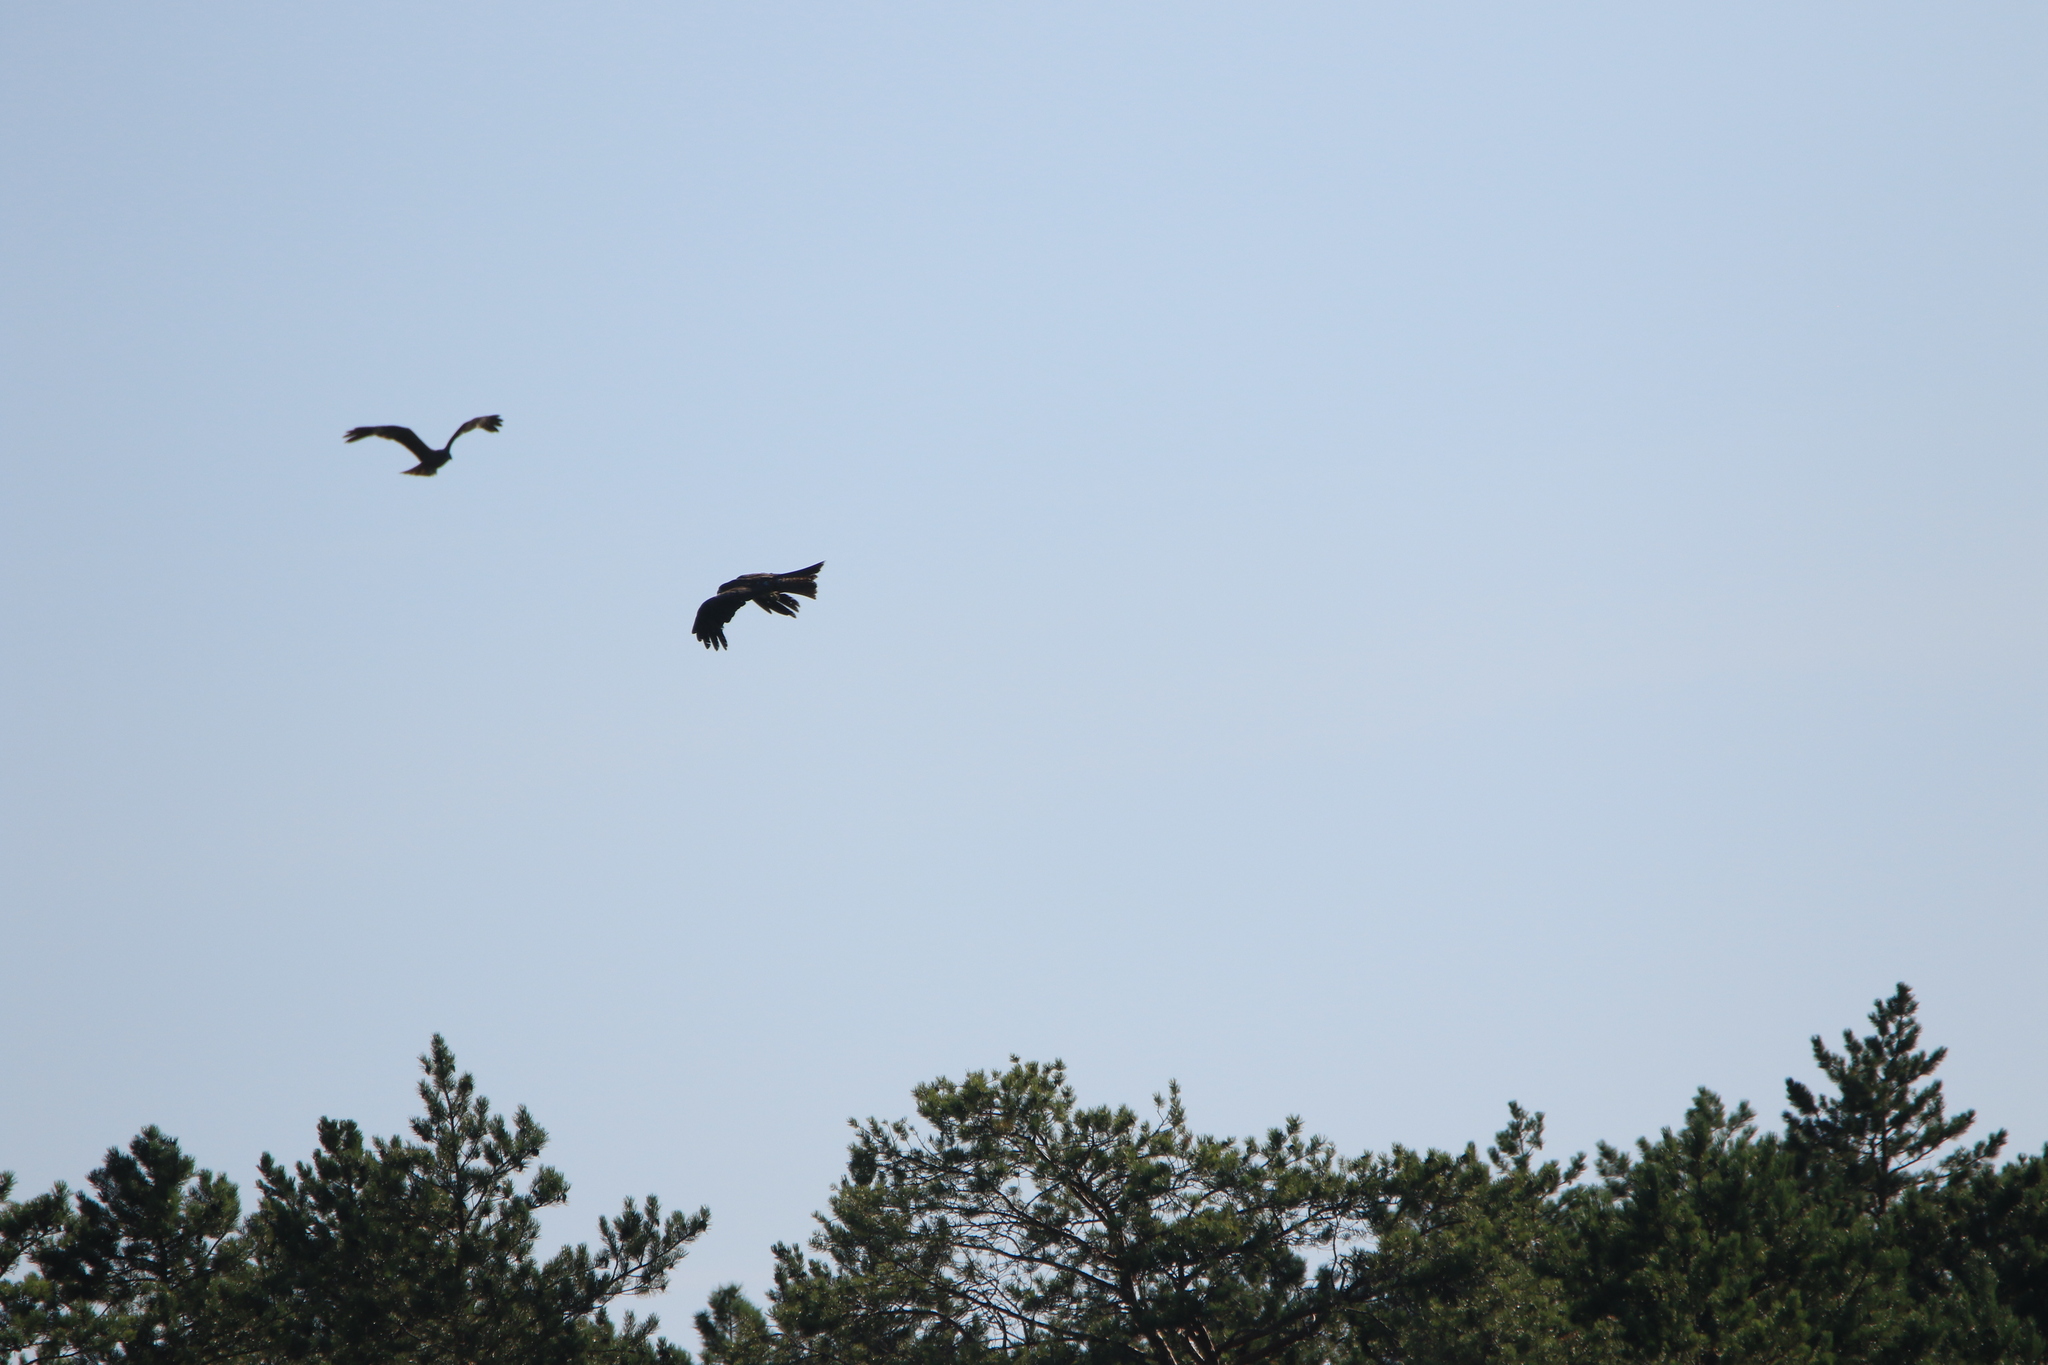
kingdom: Animalia
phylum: Chordata
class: Aves
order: Accipitriformes
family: Accipitridae
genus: Milvus
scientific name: Milvus migrans
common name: Black kite
